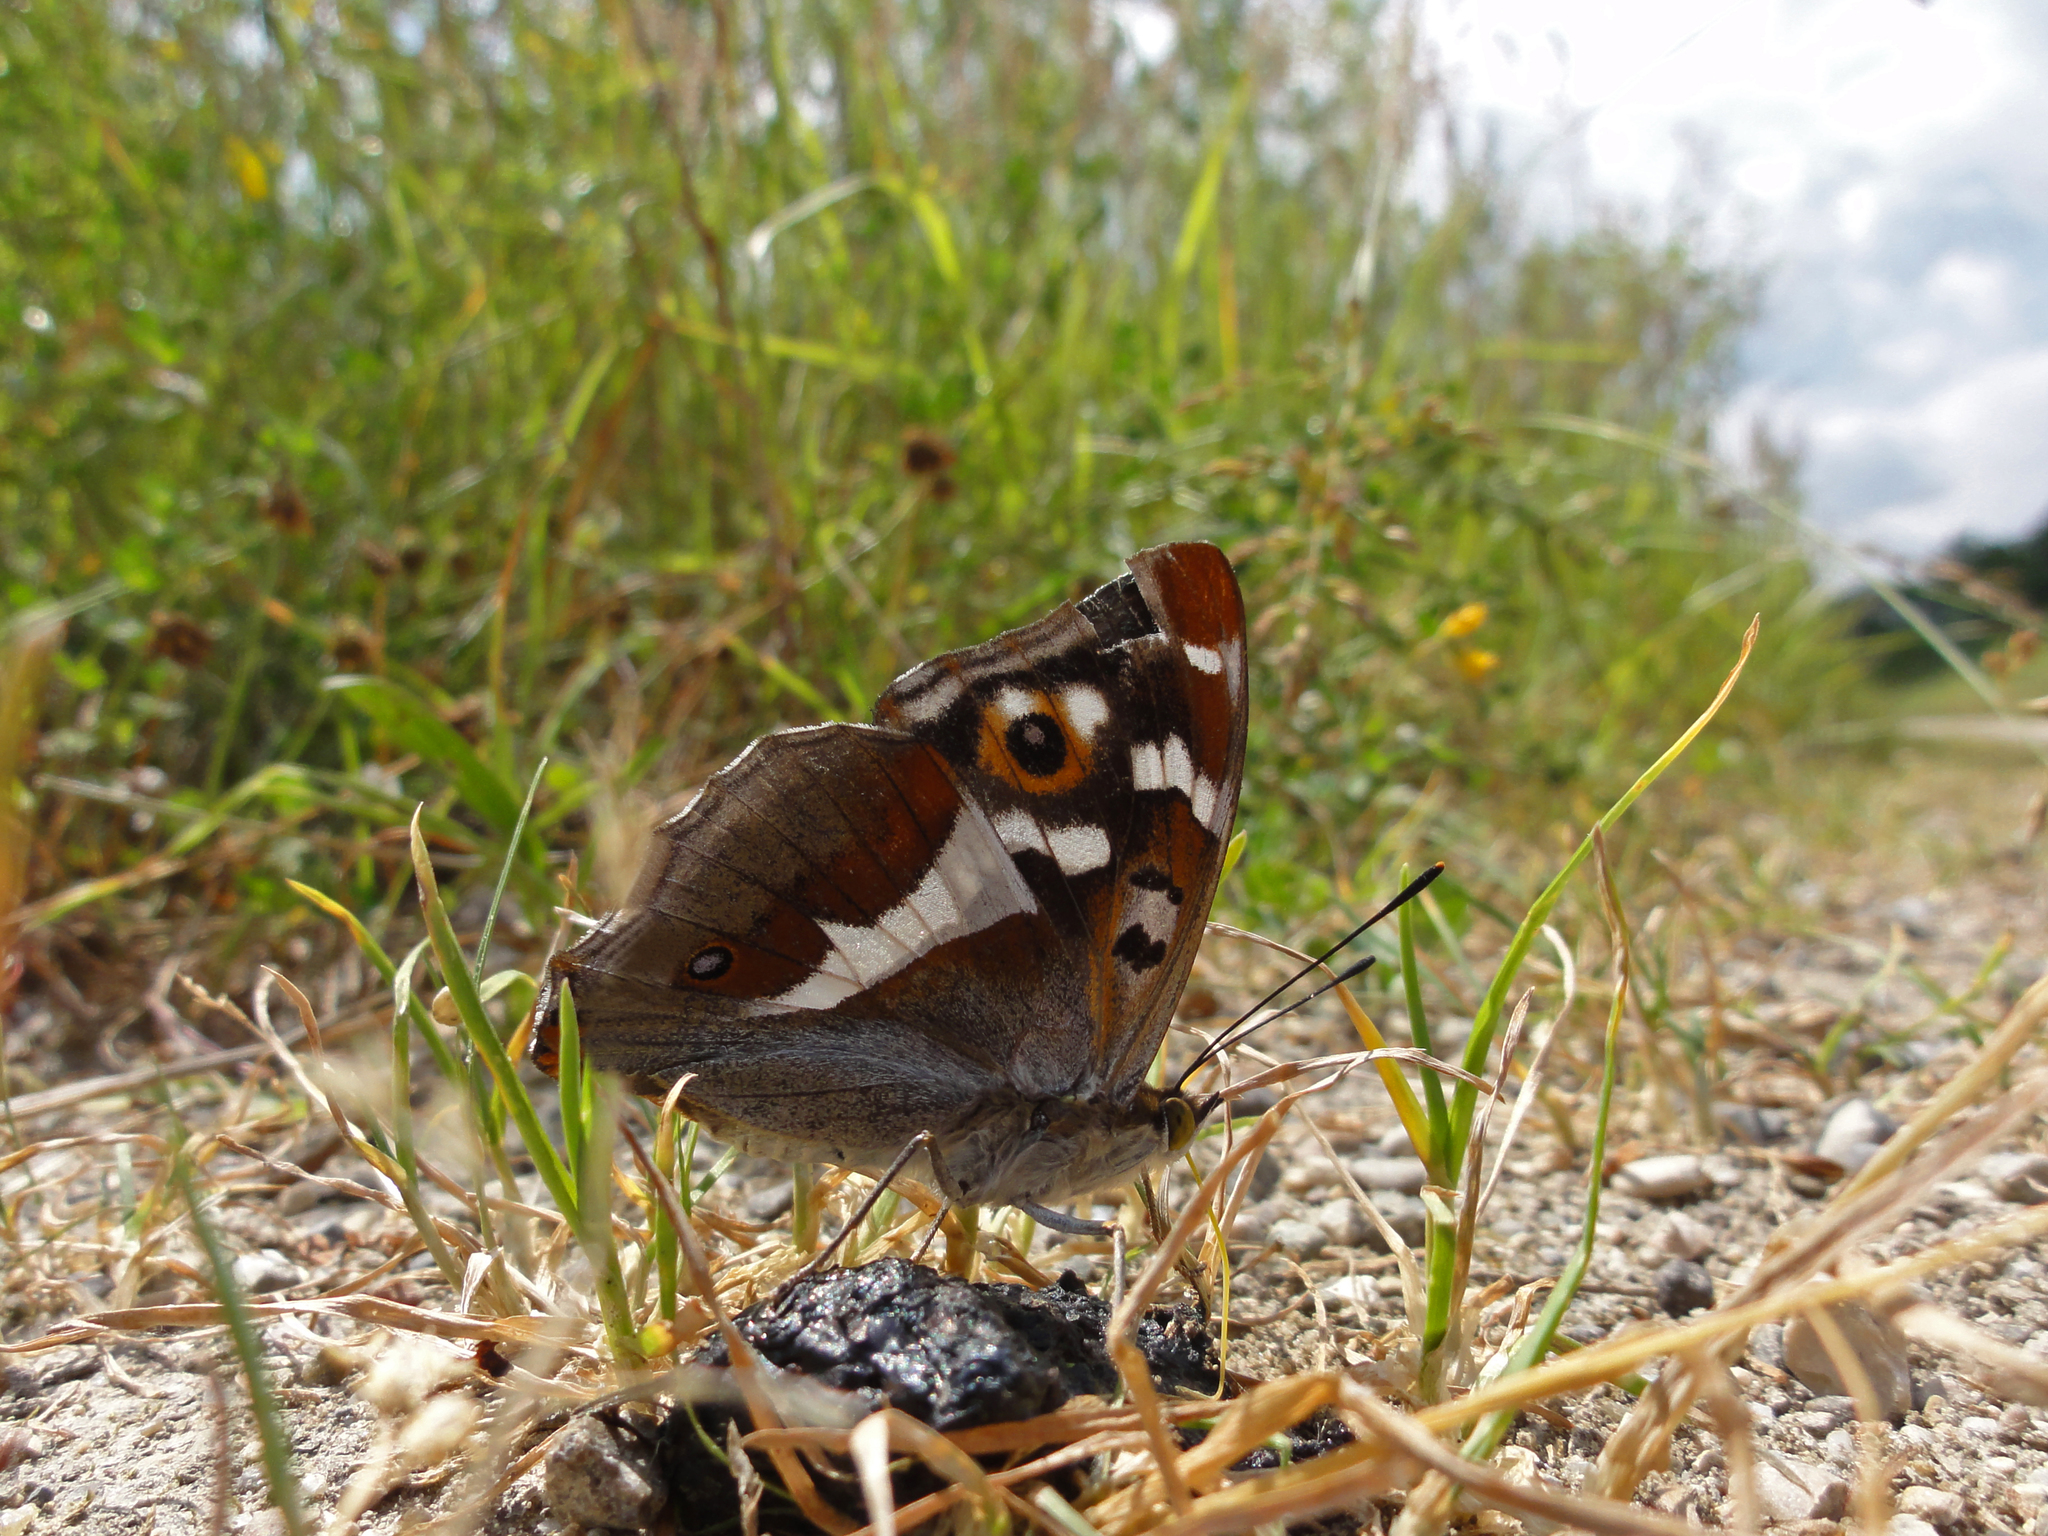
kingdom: Animalia
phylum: Arthropoda
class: Insecta
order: Lepidoptera
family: Nymphalidae
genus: Apatura
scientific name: Apatura iris
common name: Purple emperor
